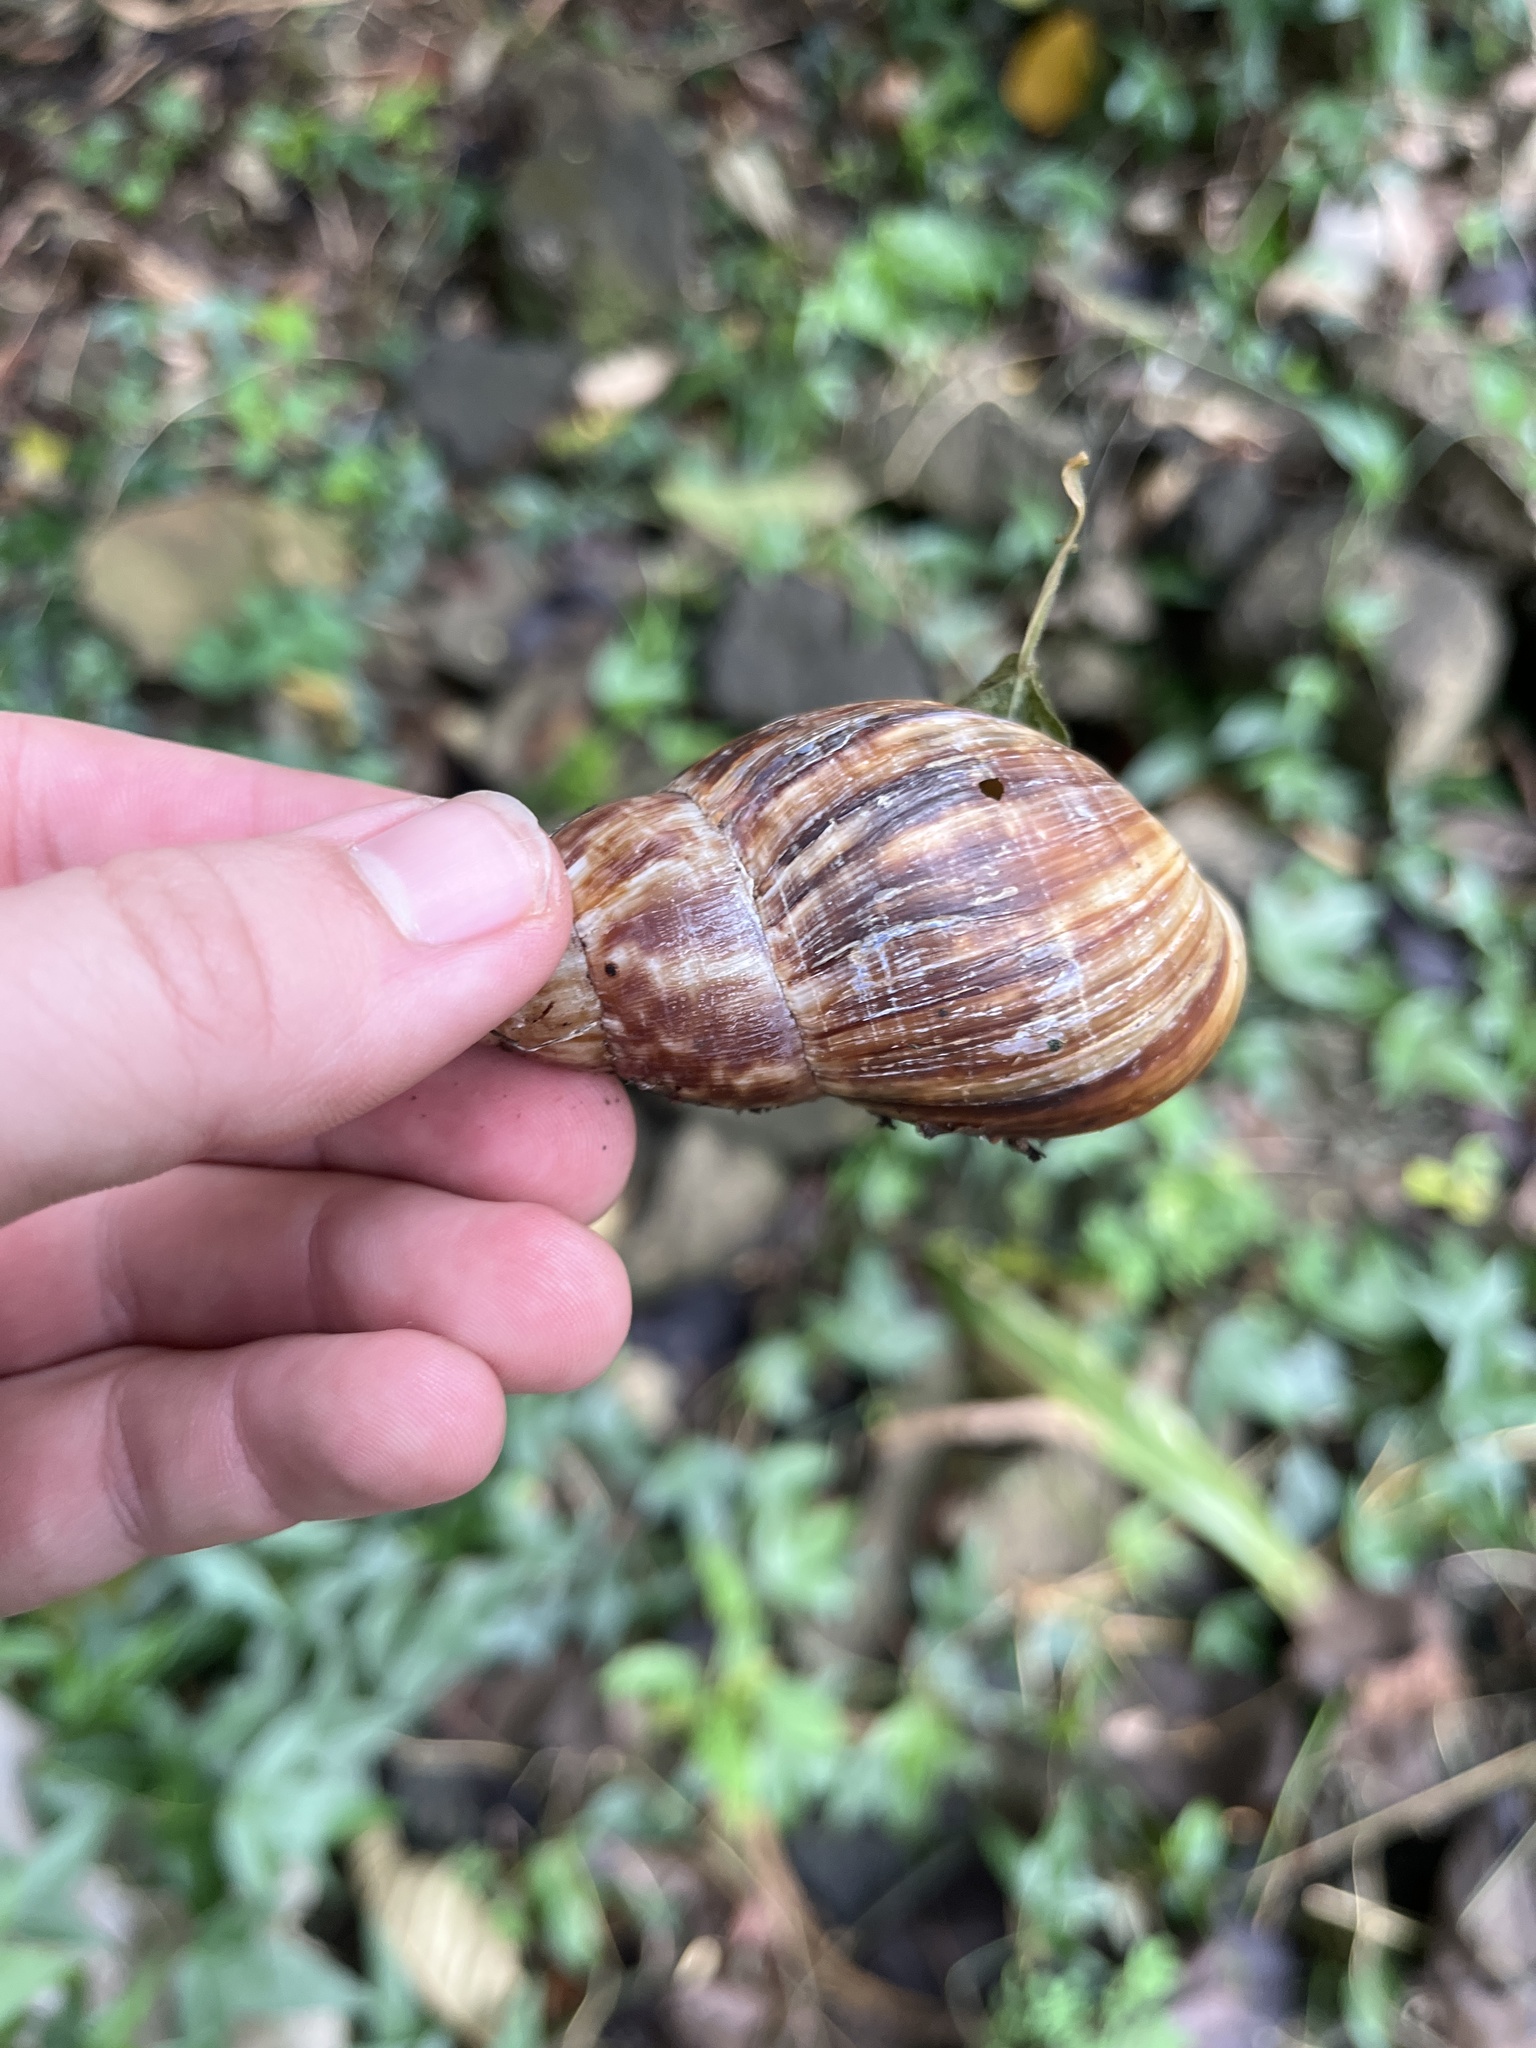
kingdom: Animalia
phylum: Mollusca
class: Gastropoda
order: Stylommatophora
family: Achatinidae
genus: Lissachatina
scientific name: Lissachatina fulica
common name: Giant african snail
